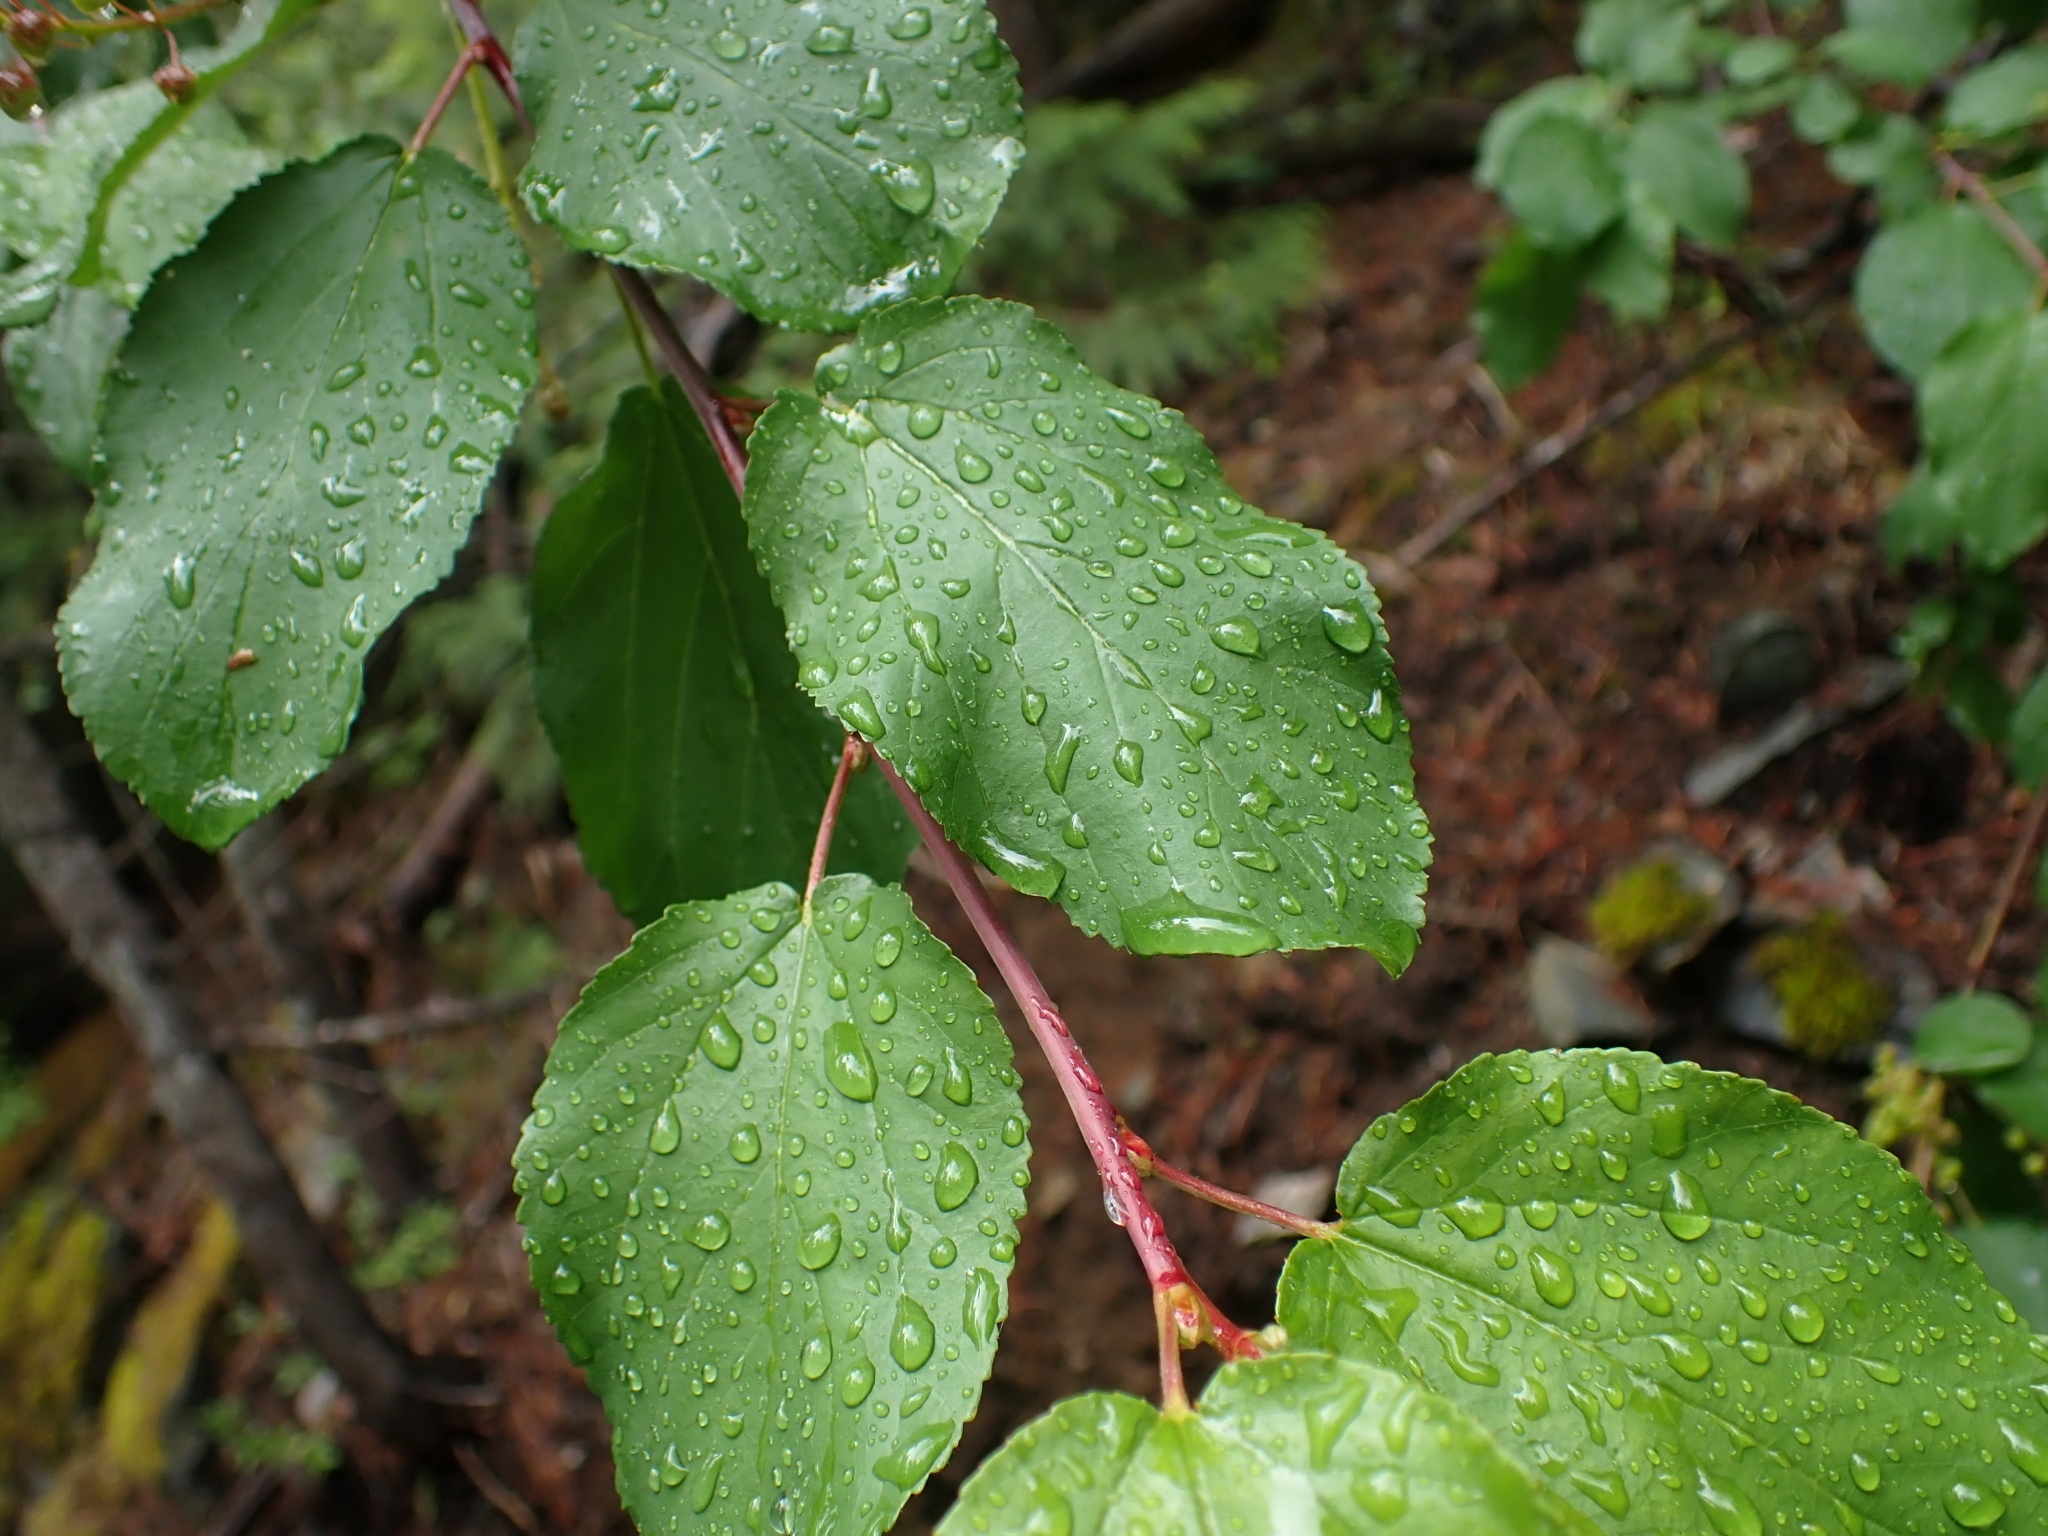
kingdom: Plantae
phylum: Tracheophyta
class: Magnoliopsida
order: Rosales
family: Rhamnaceae
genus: Ceanothus
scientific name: Ceanothus sanguineus
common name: Teatree
